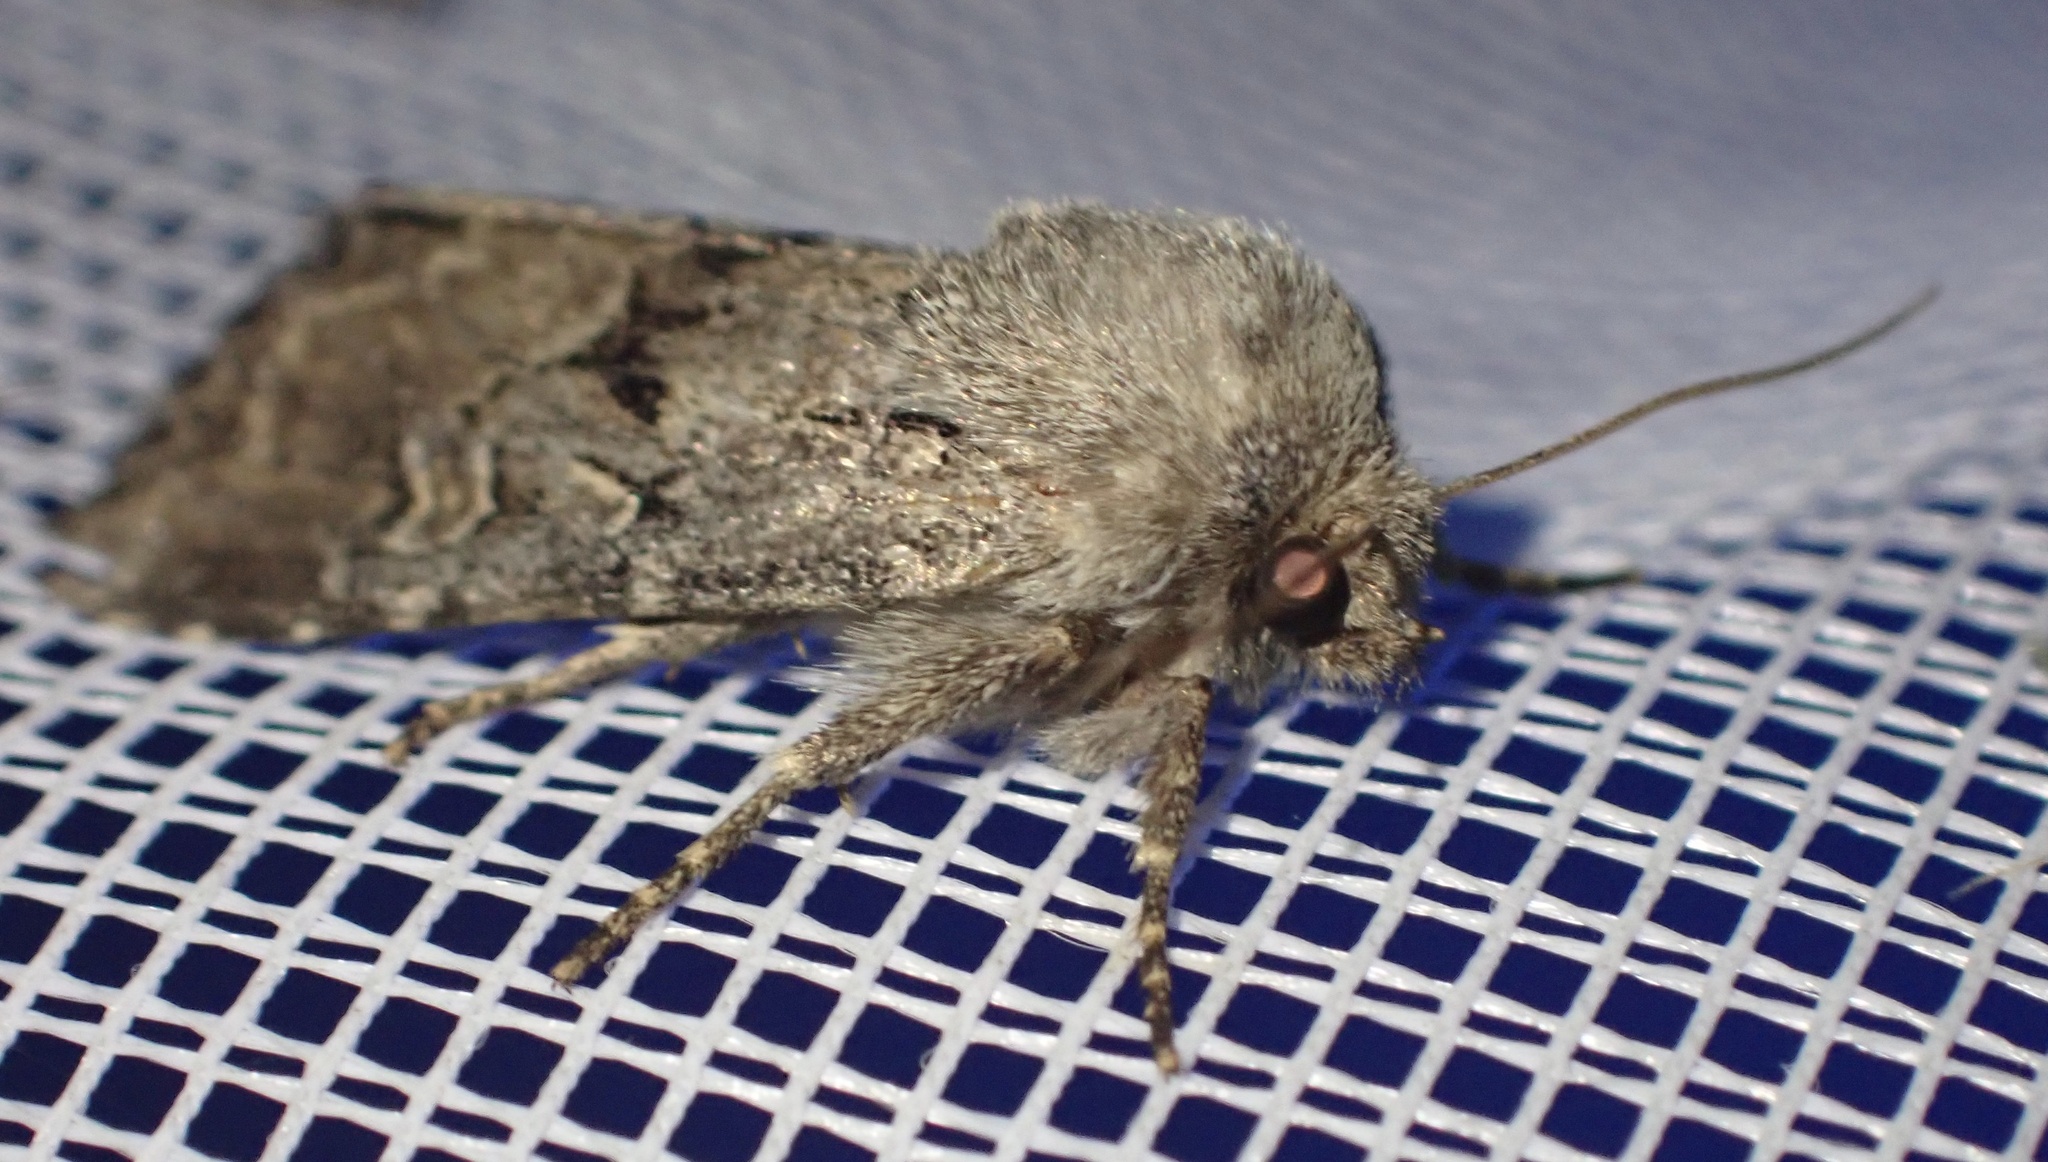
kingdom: Animalia
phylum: Arthropoda
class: Insecta
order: Lepidoptera
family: Noctuidae
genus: Luperina
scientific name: Luperina testacea
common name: Flounced rustic
